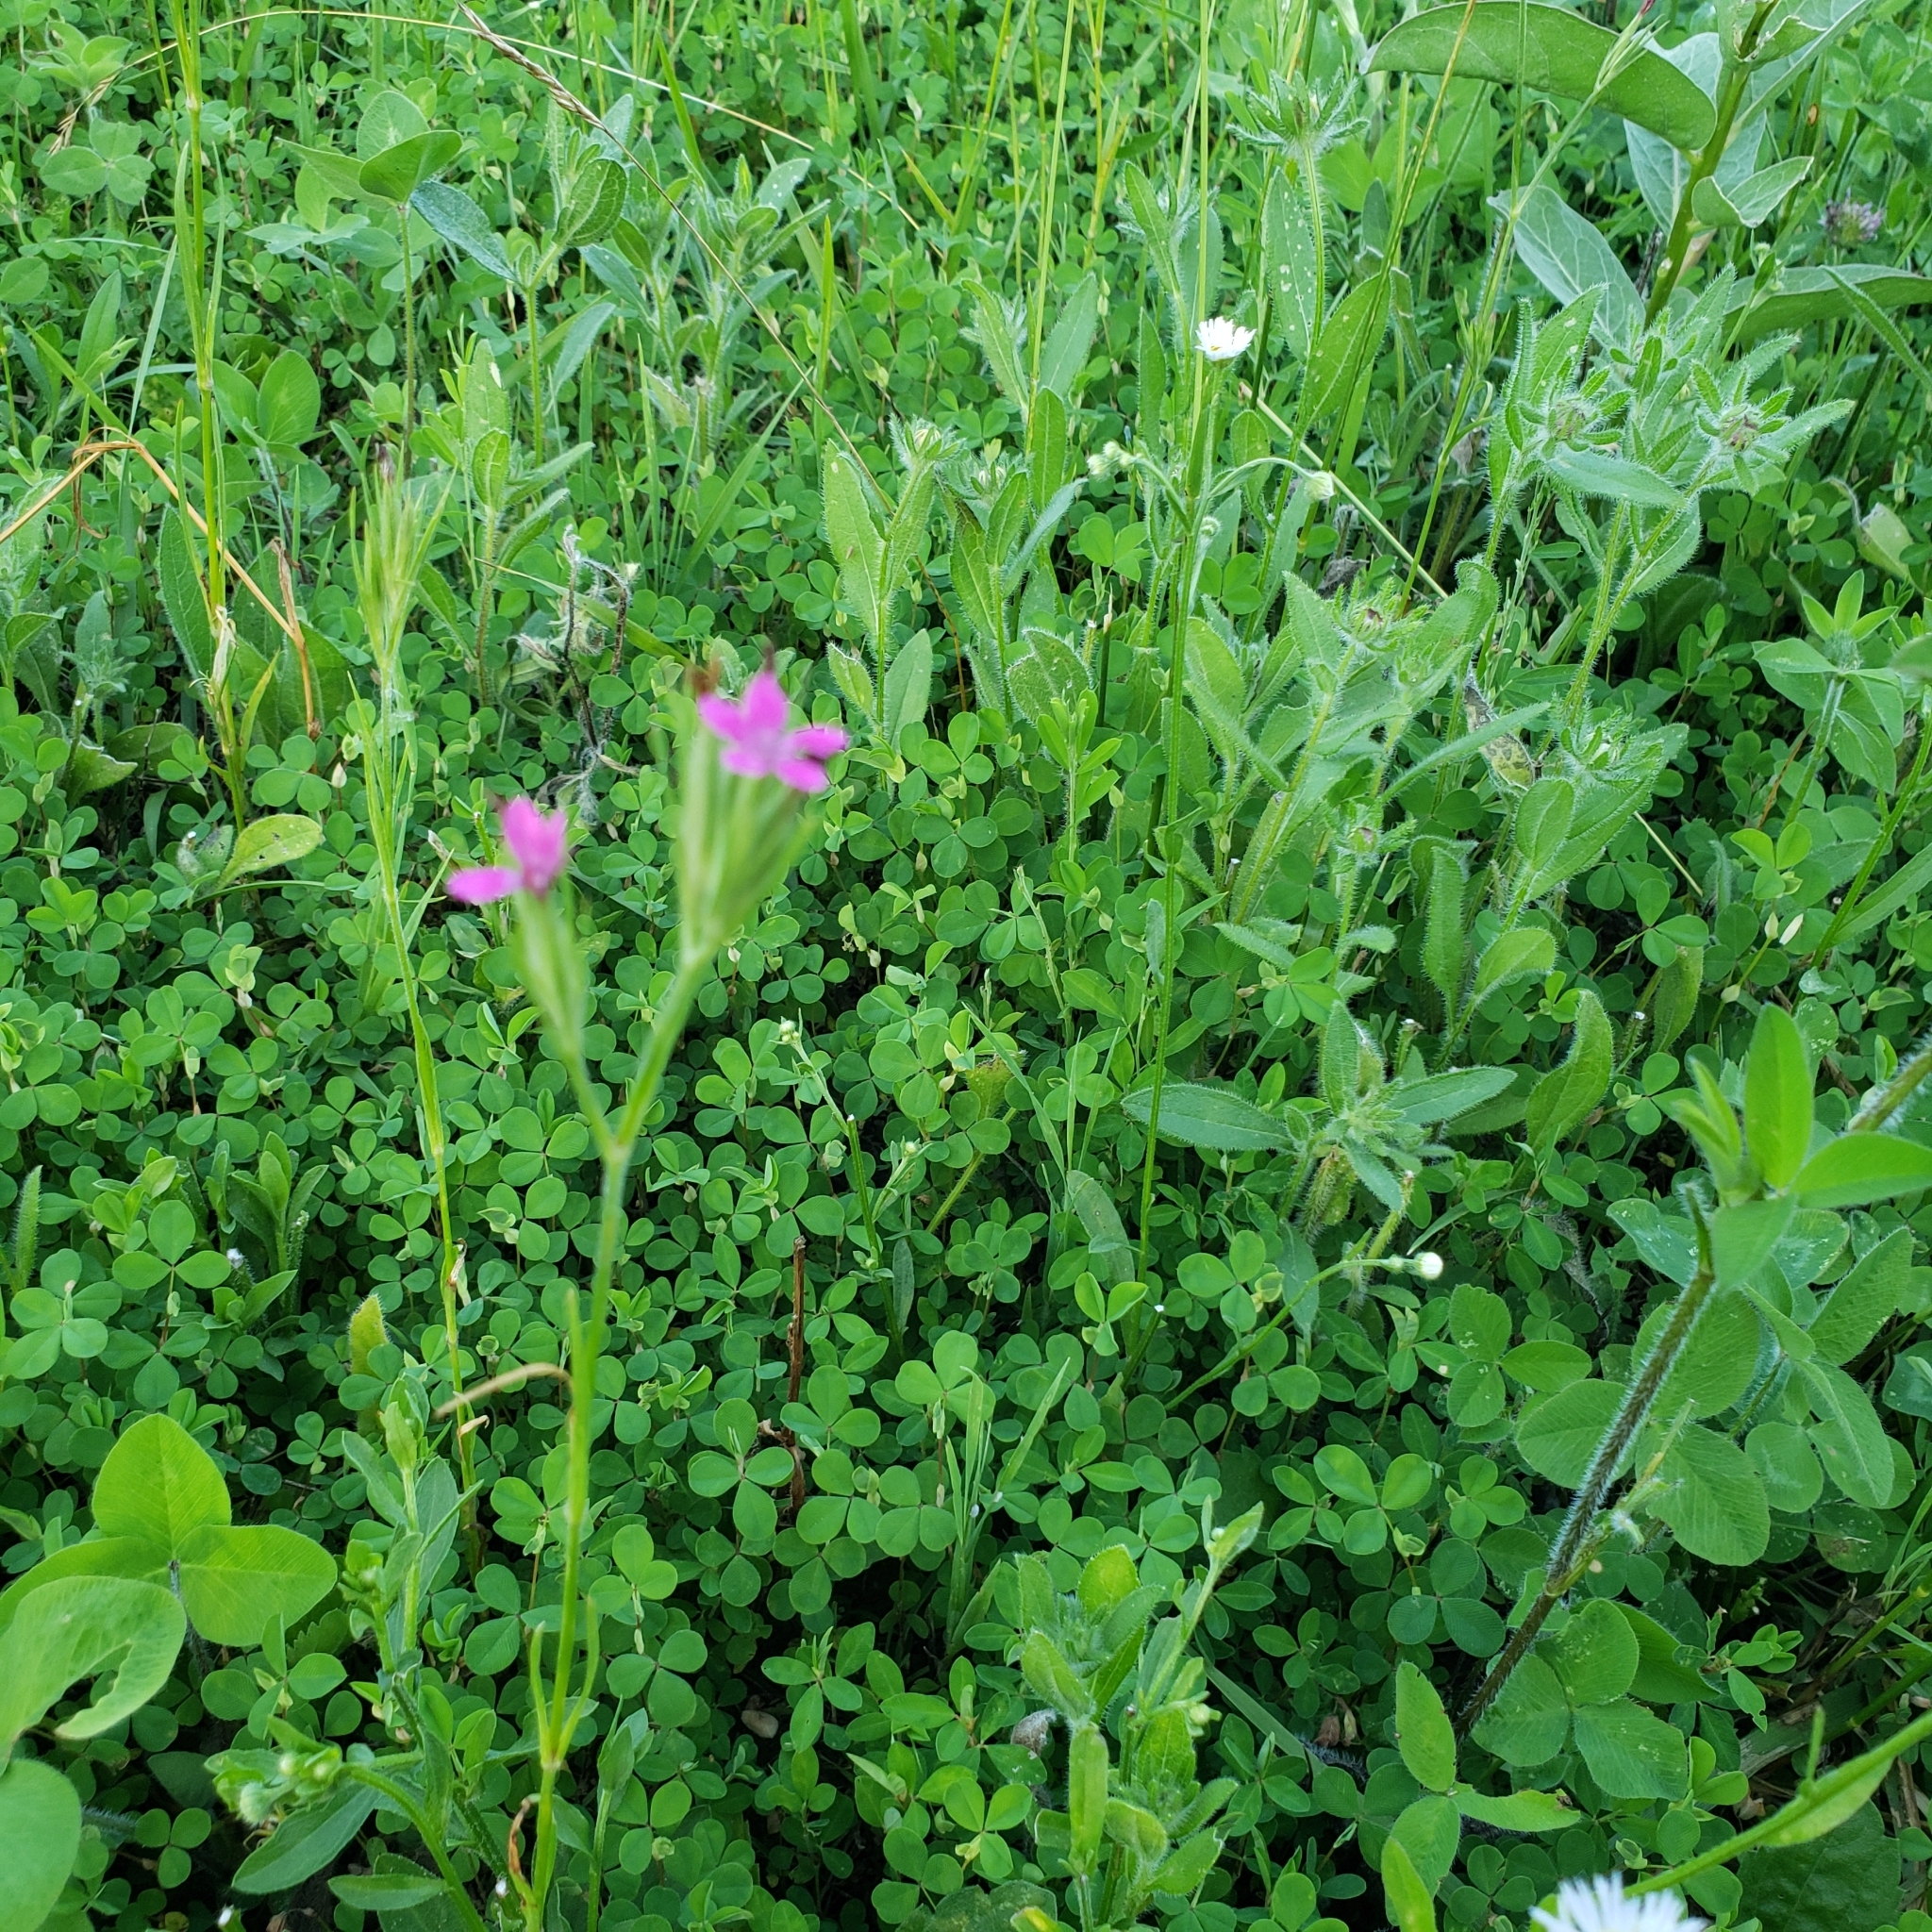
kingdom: Plantae
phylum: Tracheophyta
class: Magnoliopsida
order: Caryophyllales
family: Caryophyllaceae
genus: Dianthus
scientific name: Dianthus armeria
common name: Deptford pink
